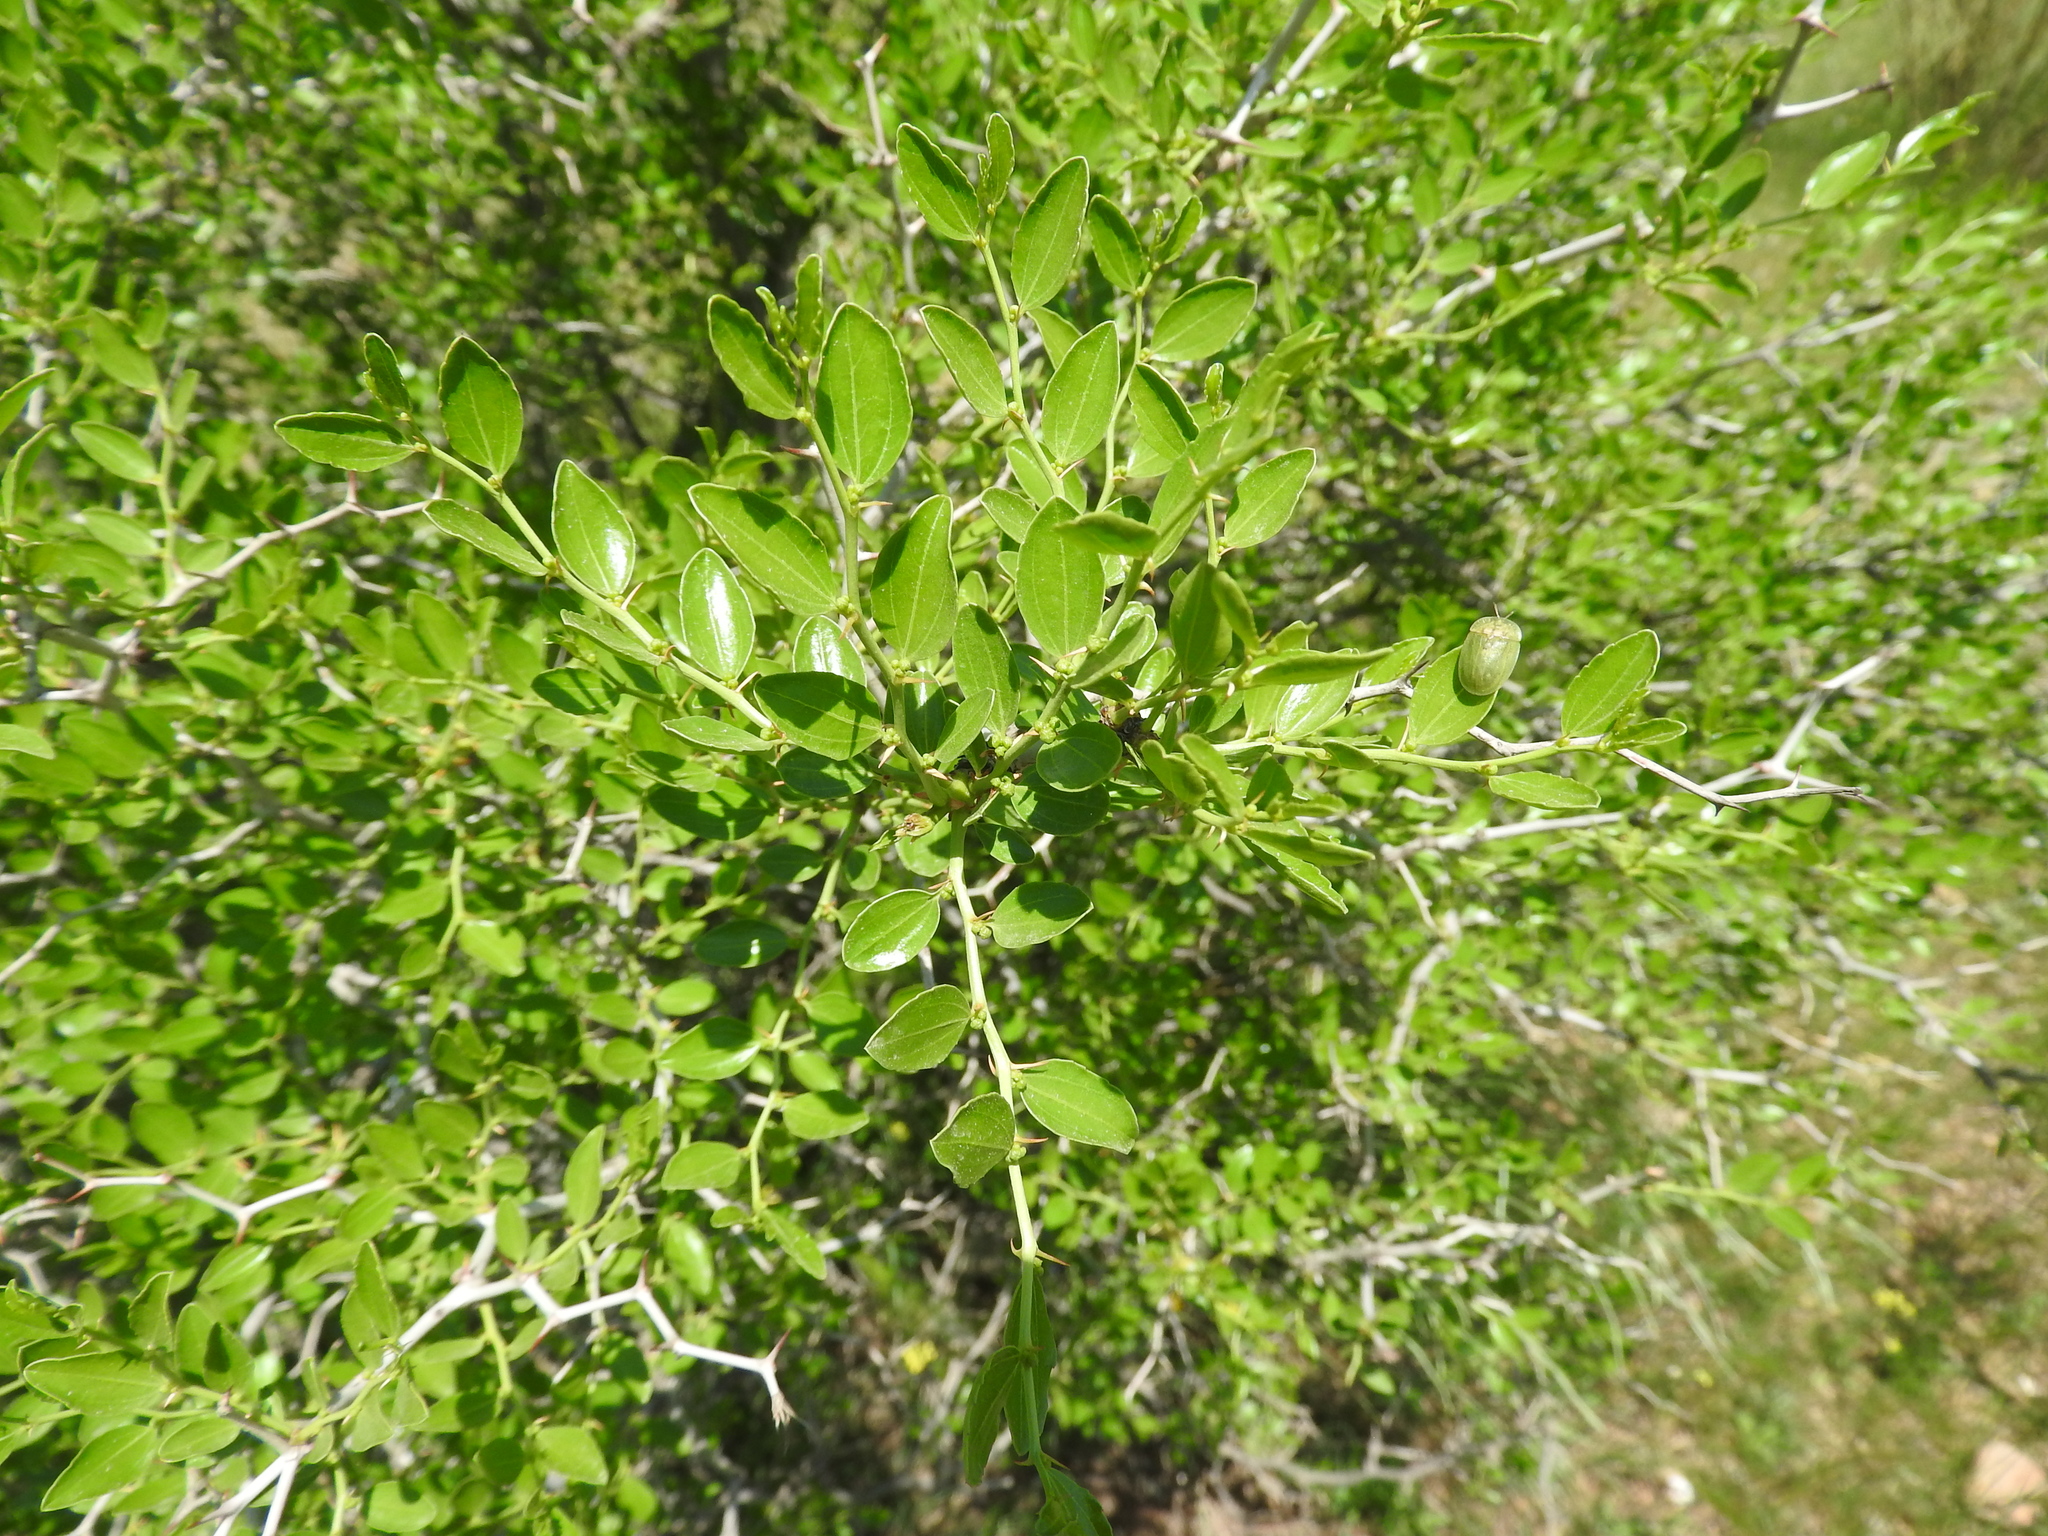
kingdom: Plantae
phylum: Tracheophyta
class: Magnoliopsida
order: Rosales
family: Rhamnaceae
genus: Ziziphus
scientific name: Ziziphus lotus
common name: Lotus
